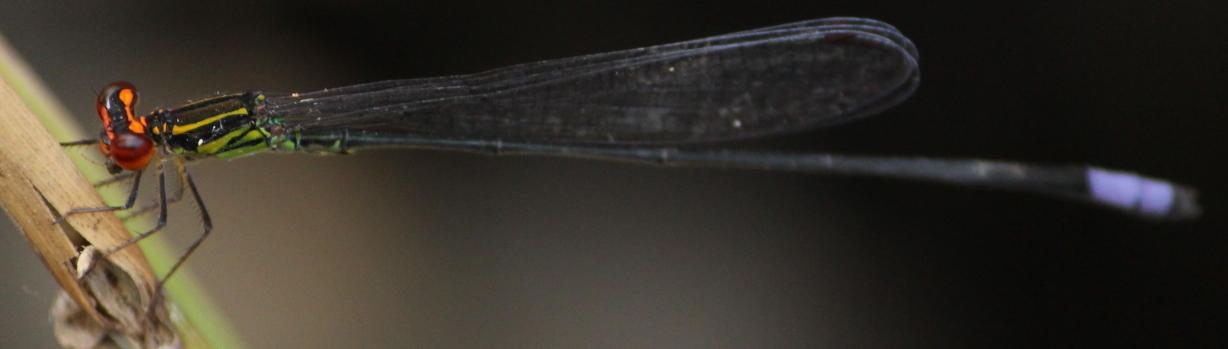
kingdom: Animalia
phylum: Arthropoda
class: Insecta
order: Odonata
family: Coenagrionidae
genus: Pseudagrion
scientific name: Pseudagrion hageni
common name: Painted sprite
